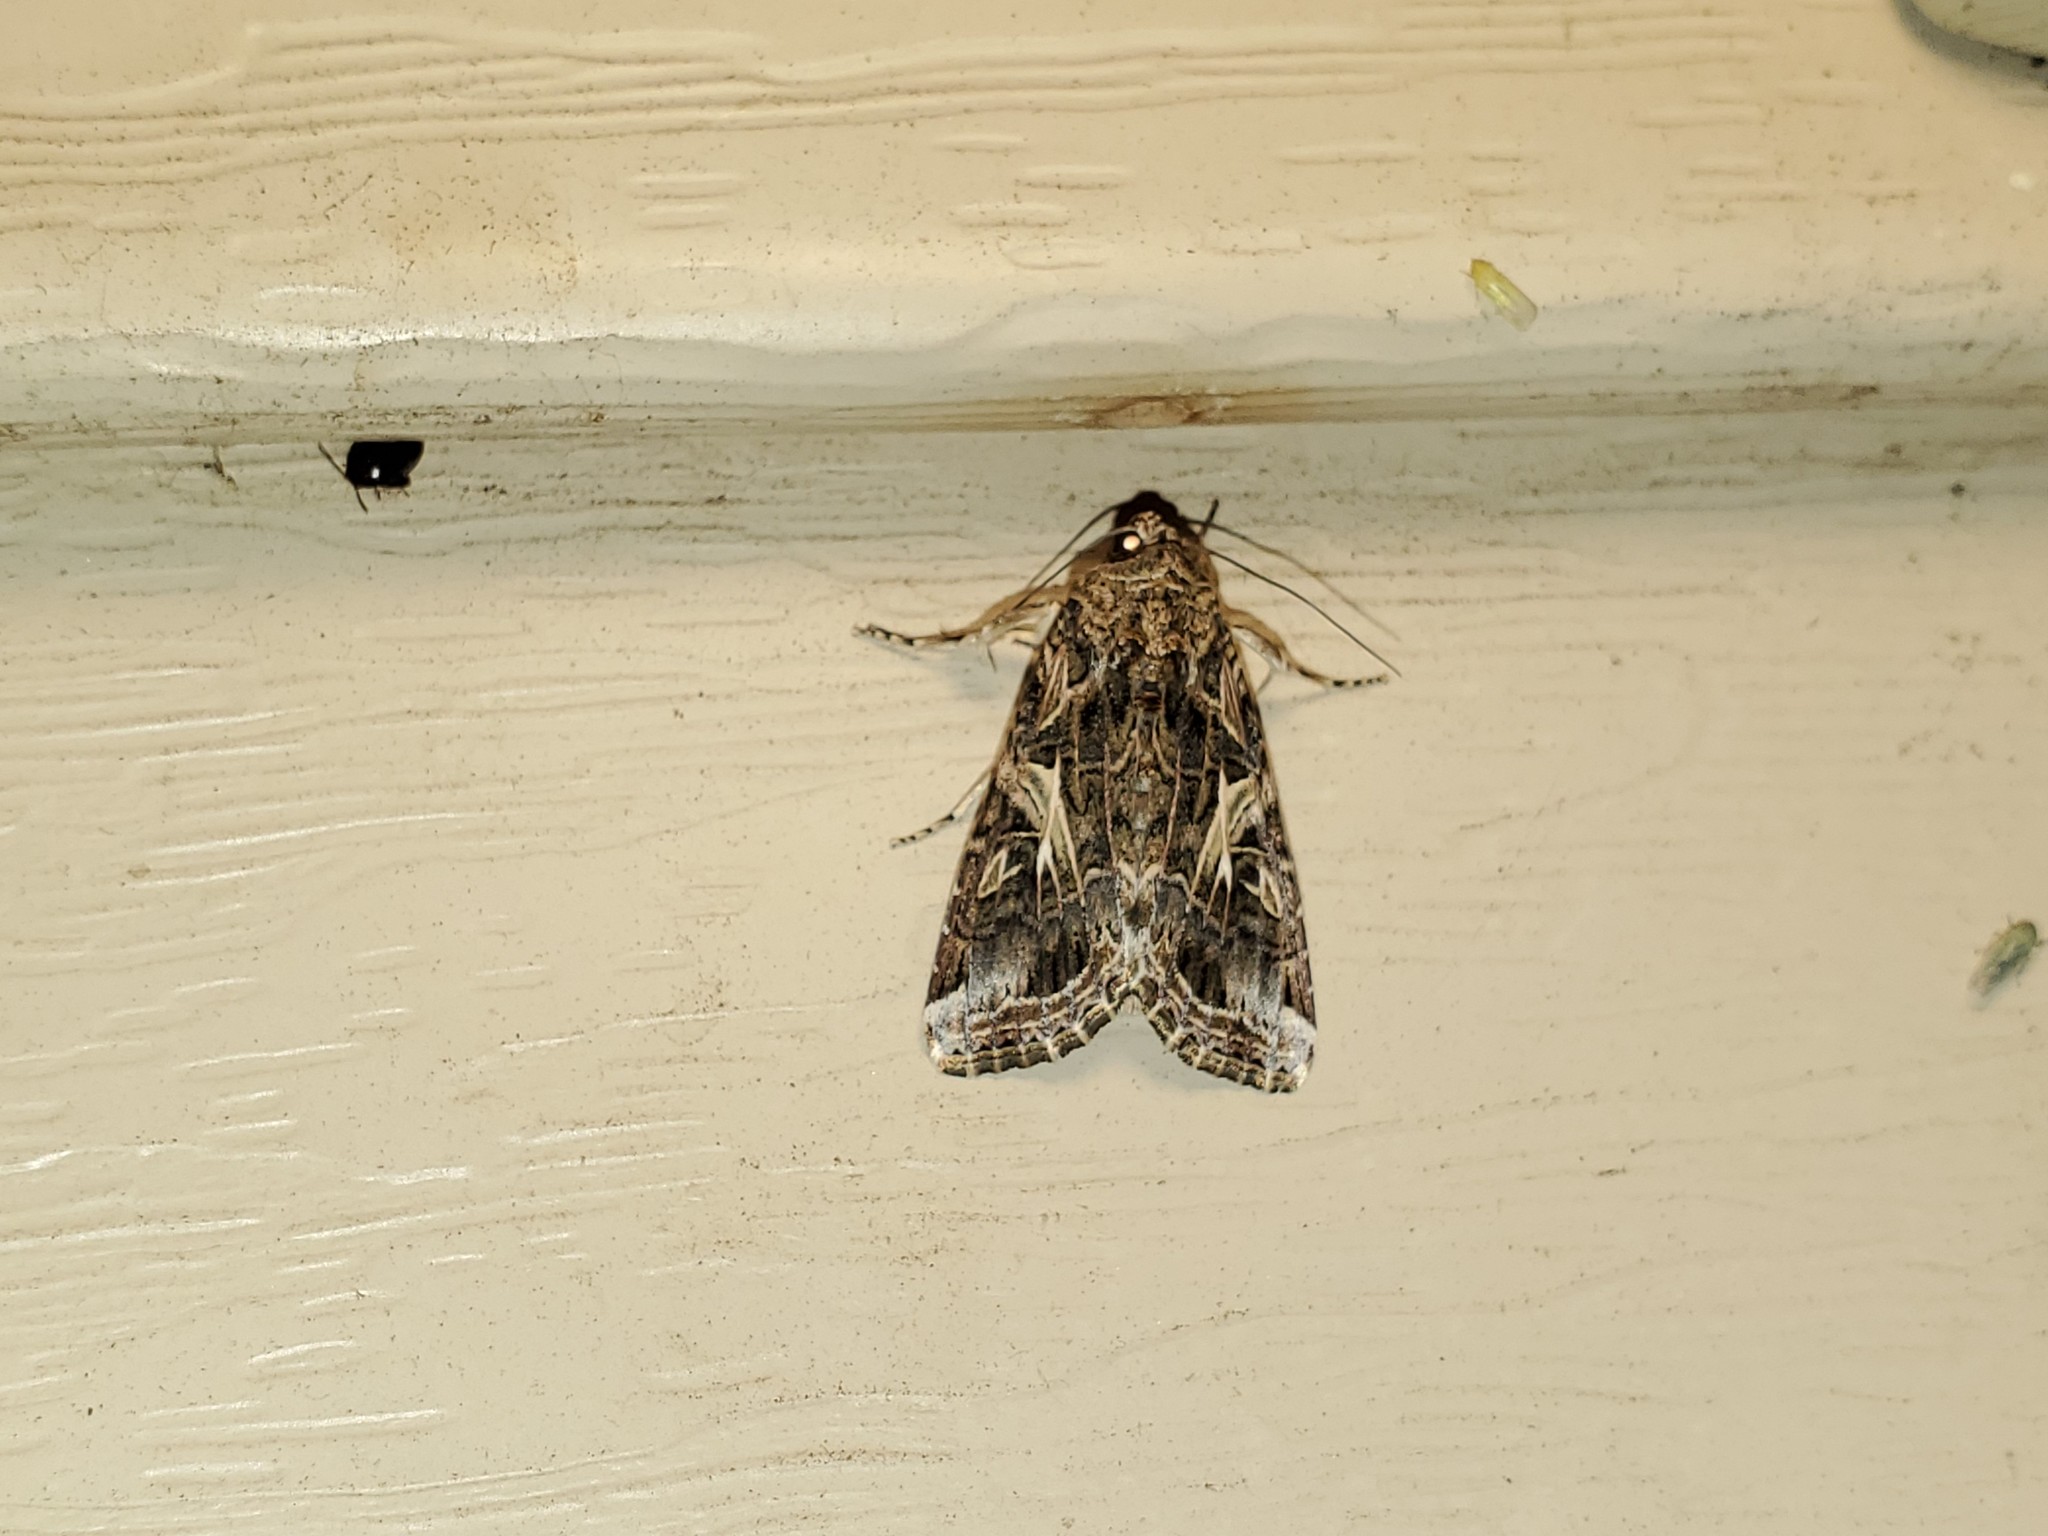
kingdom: Animalia
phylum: Arthropoda
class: Insecta
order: Lepidoptera
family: Noctuidae
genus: Spodoptera
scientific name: Spodoptera ornithogalli
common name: Yellow-striped armyworm
